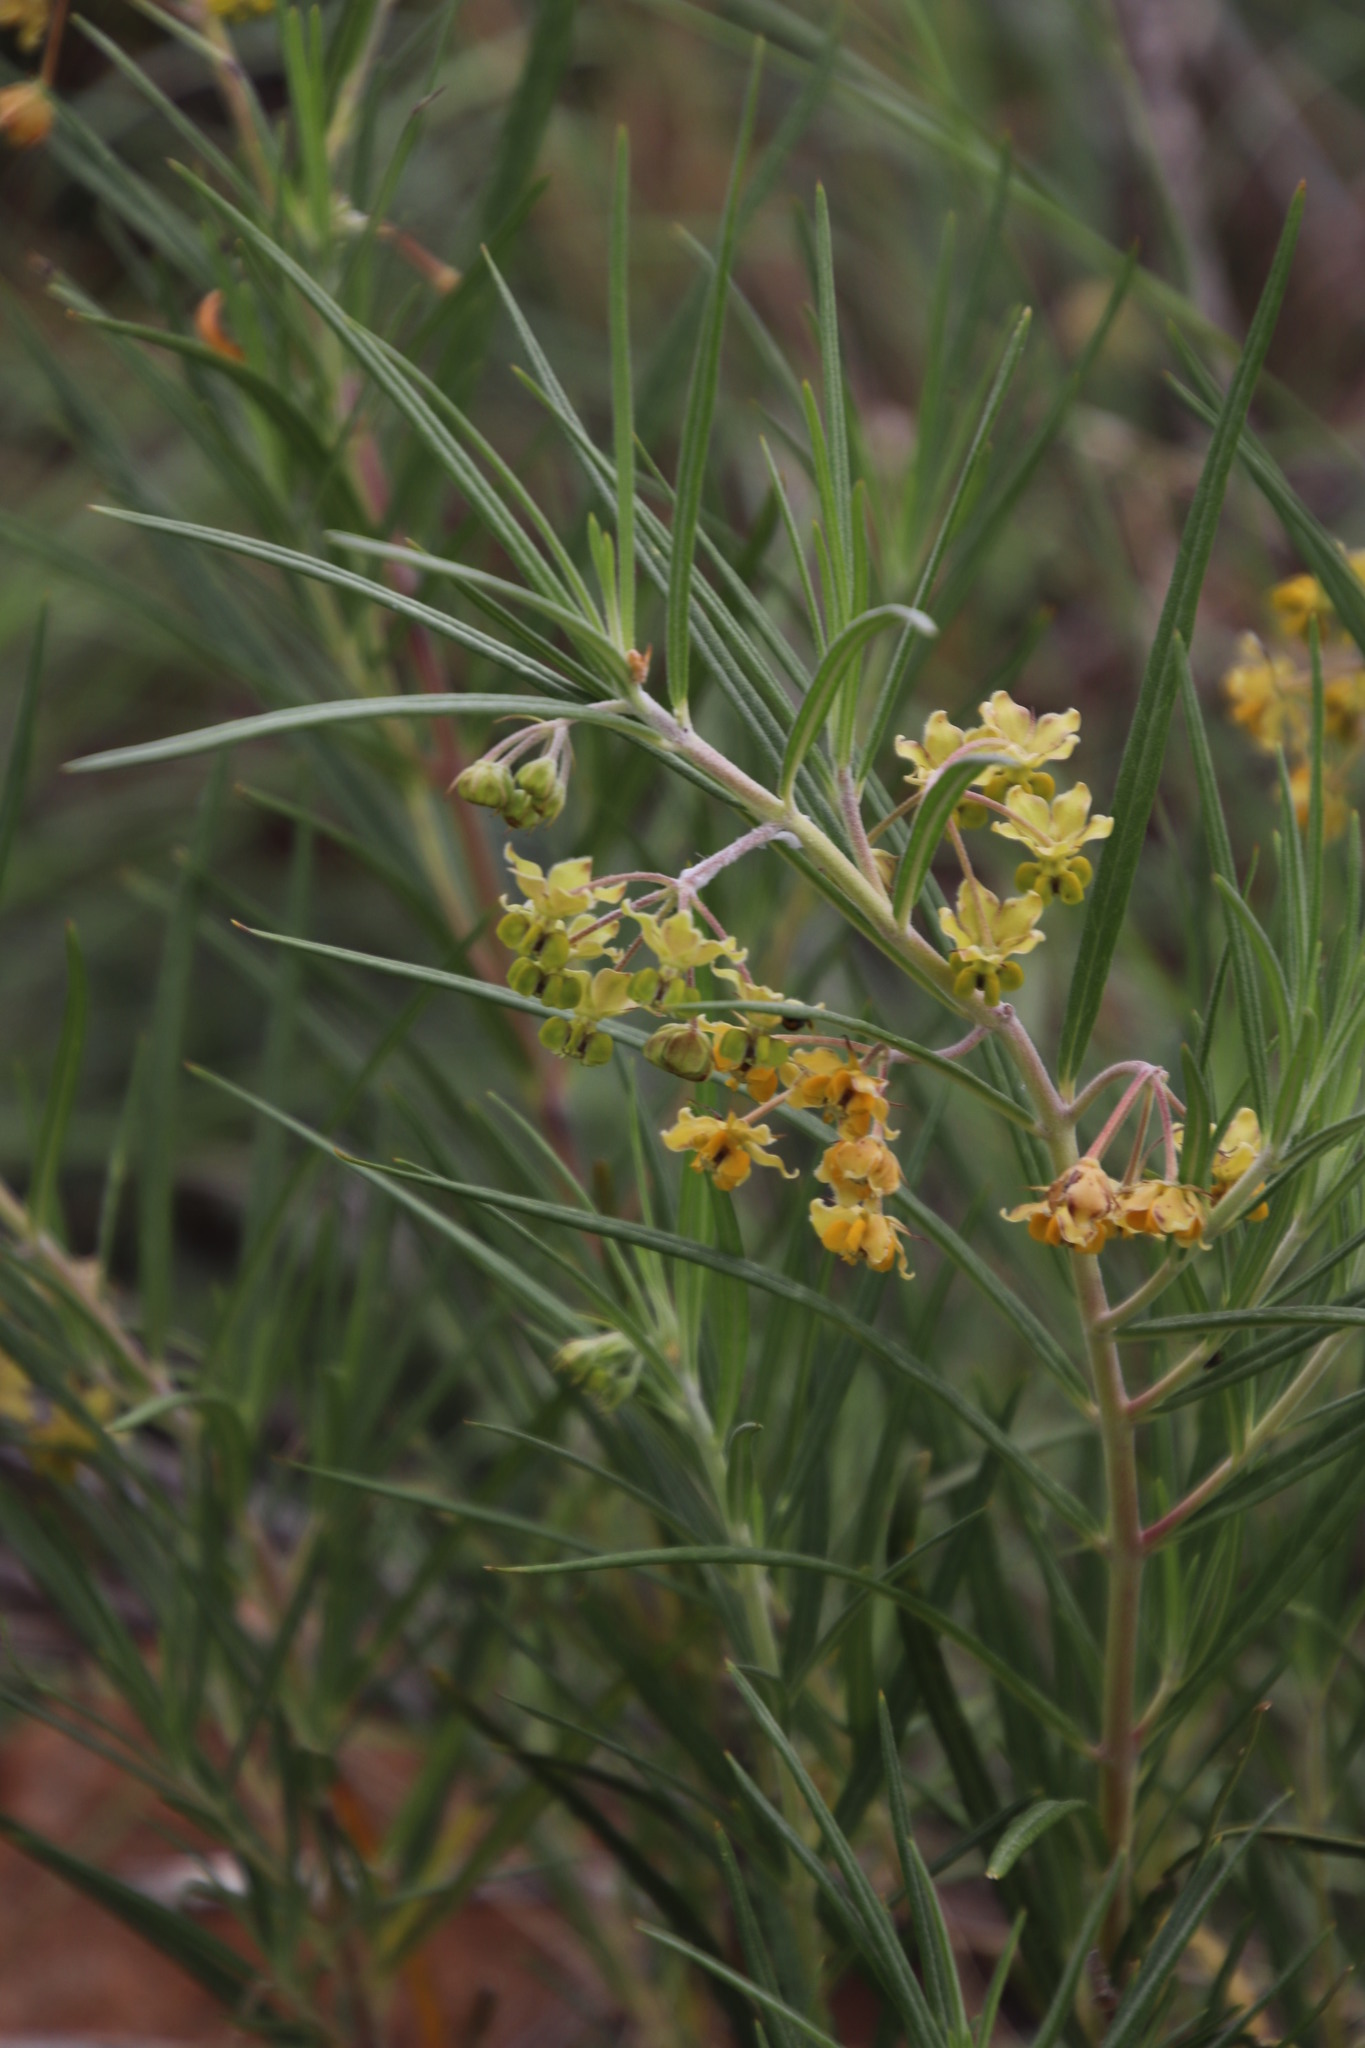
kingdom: Plantae
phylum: Tracheophyta
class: Magnoliopsida
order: Gentianales
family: Apocynaceae
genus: Gomphocarpus
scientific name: Gomphocarpus fruticosus
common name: Milkweed
